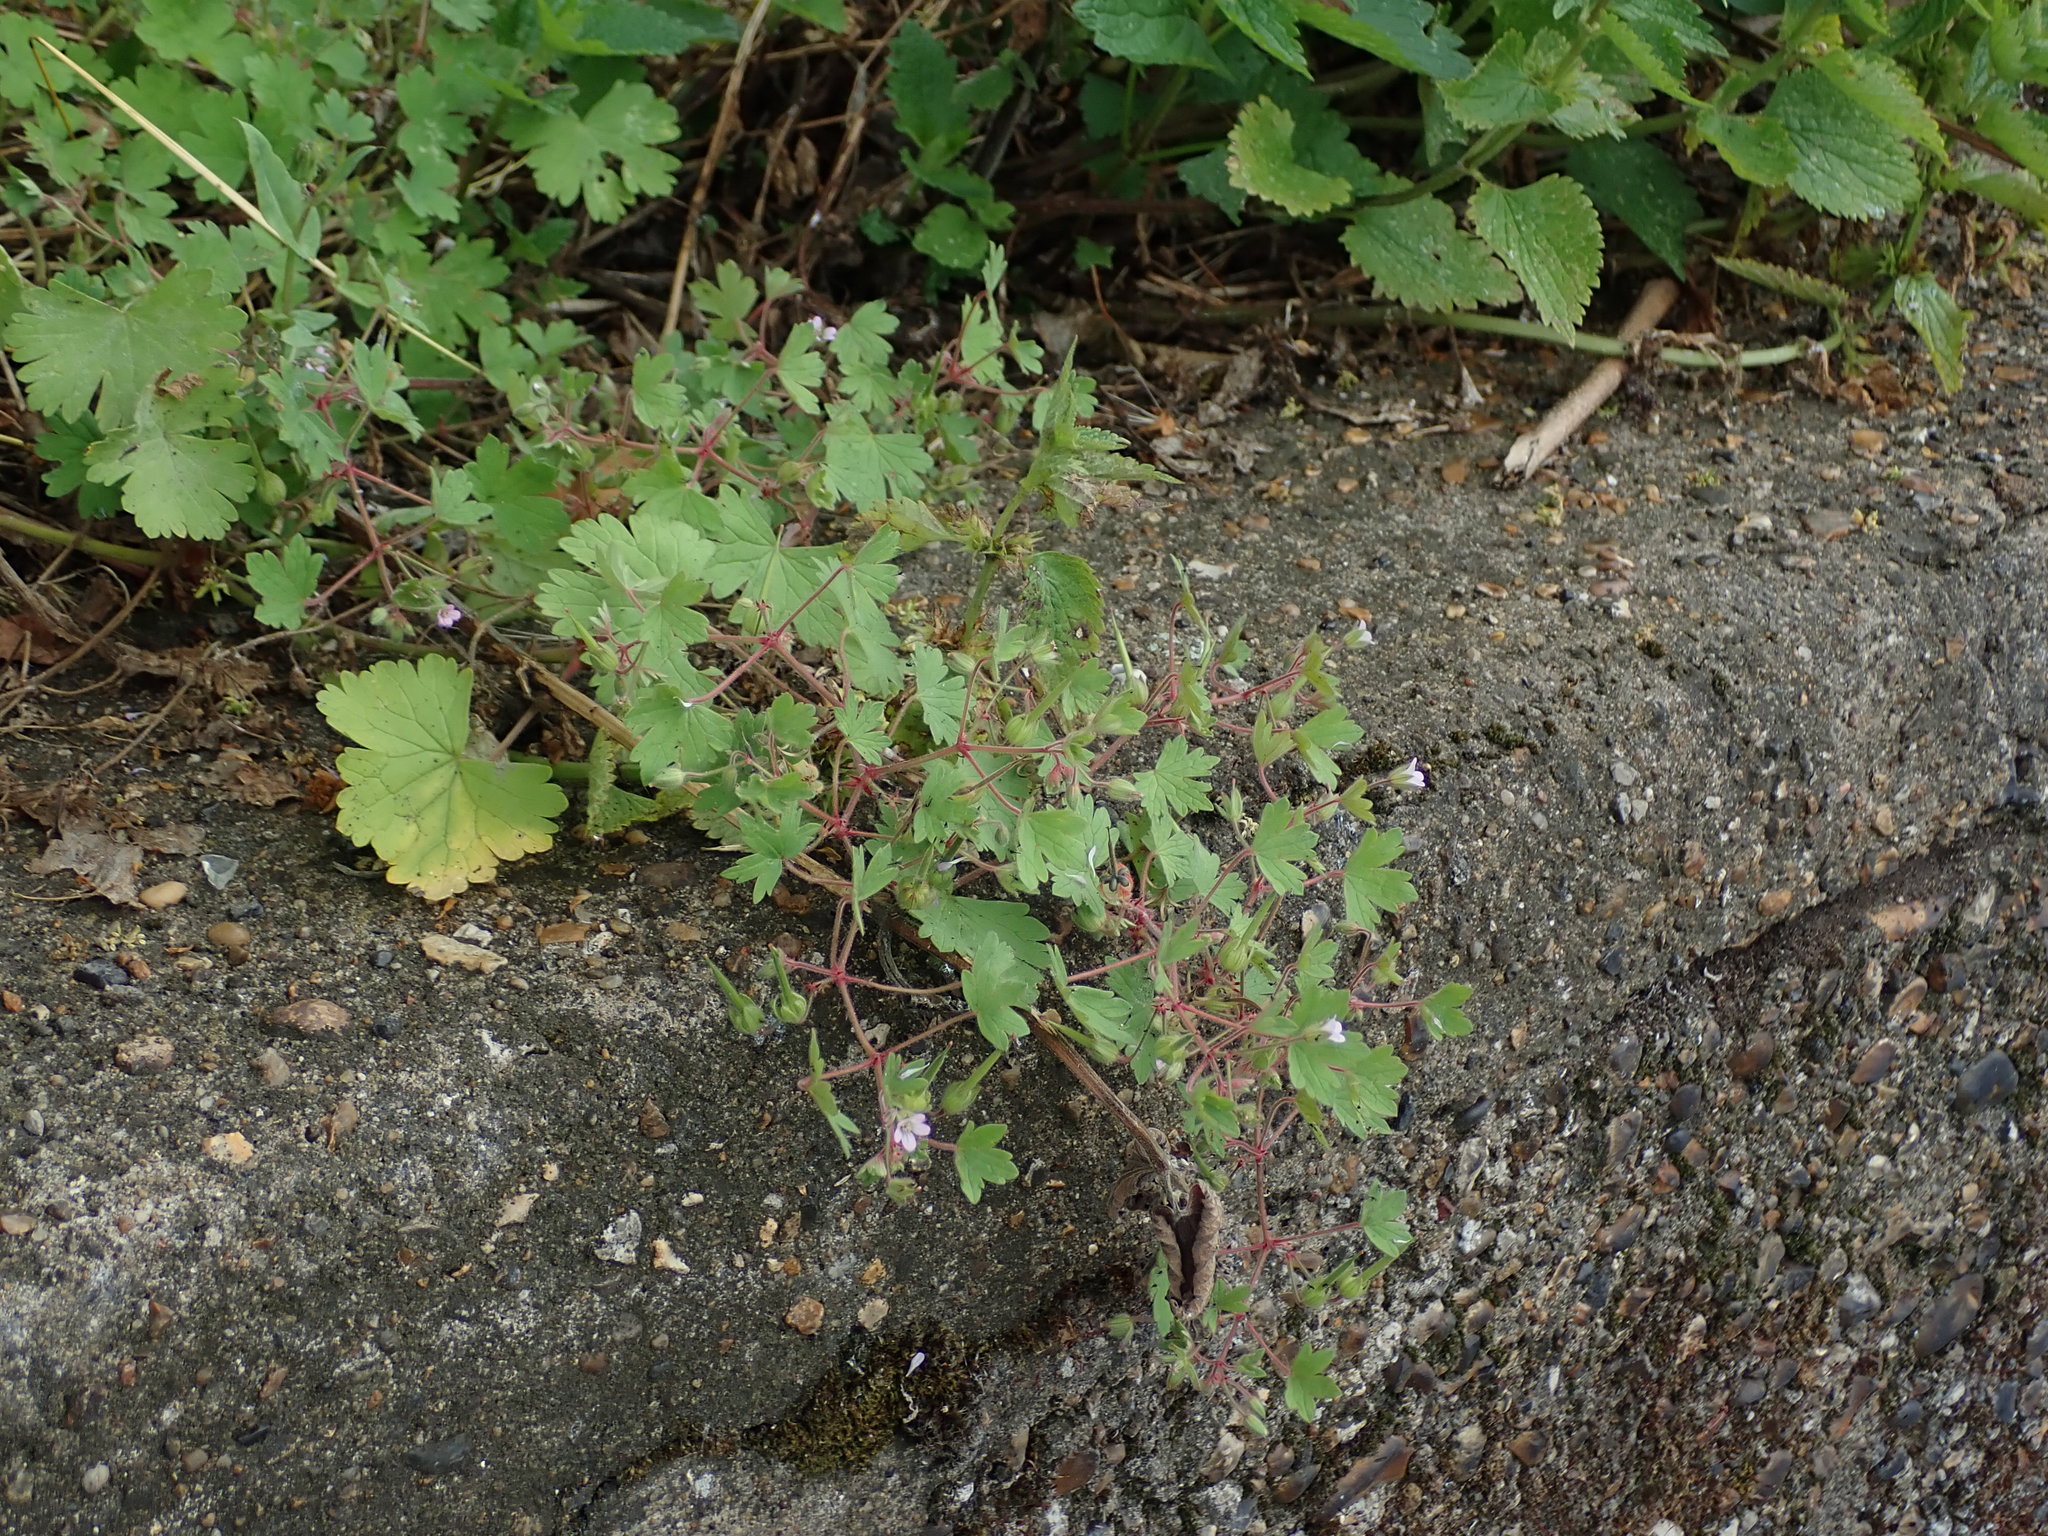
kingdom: Plantae
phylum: Tracheophyta
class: Magnoliopsida
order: Geraniales
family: Geraniaceae
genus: Geranium
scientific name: Geranium rotundifolium
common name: Round-leaved crane's-bill
